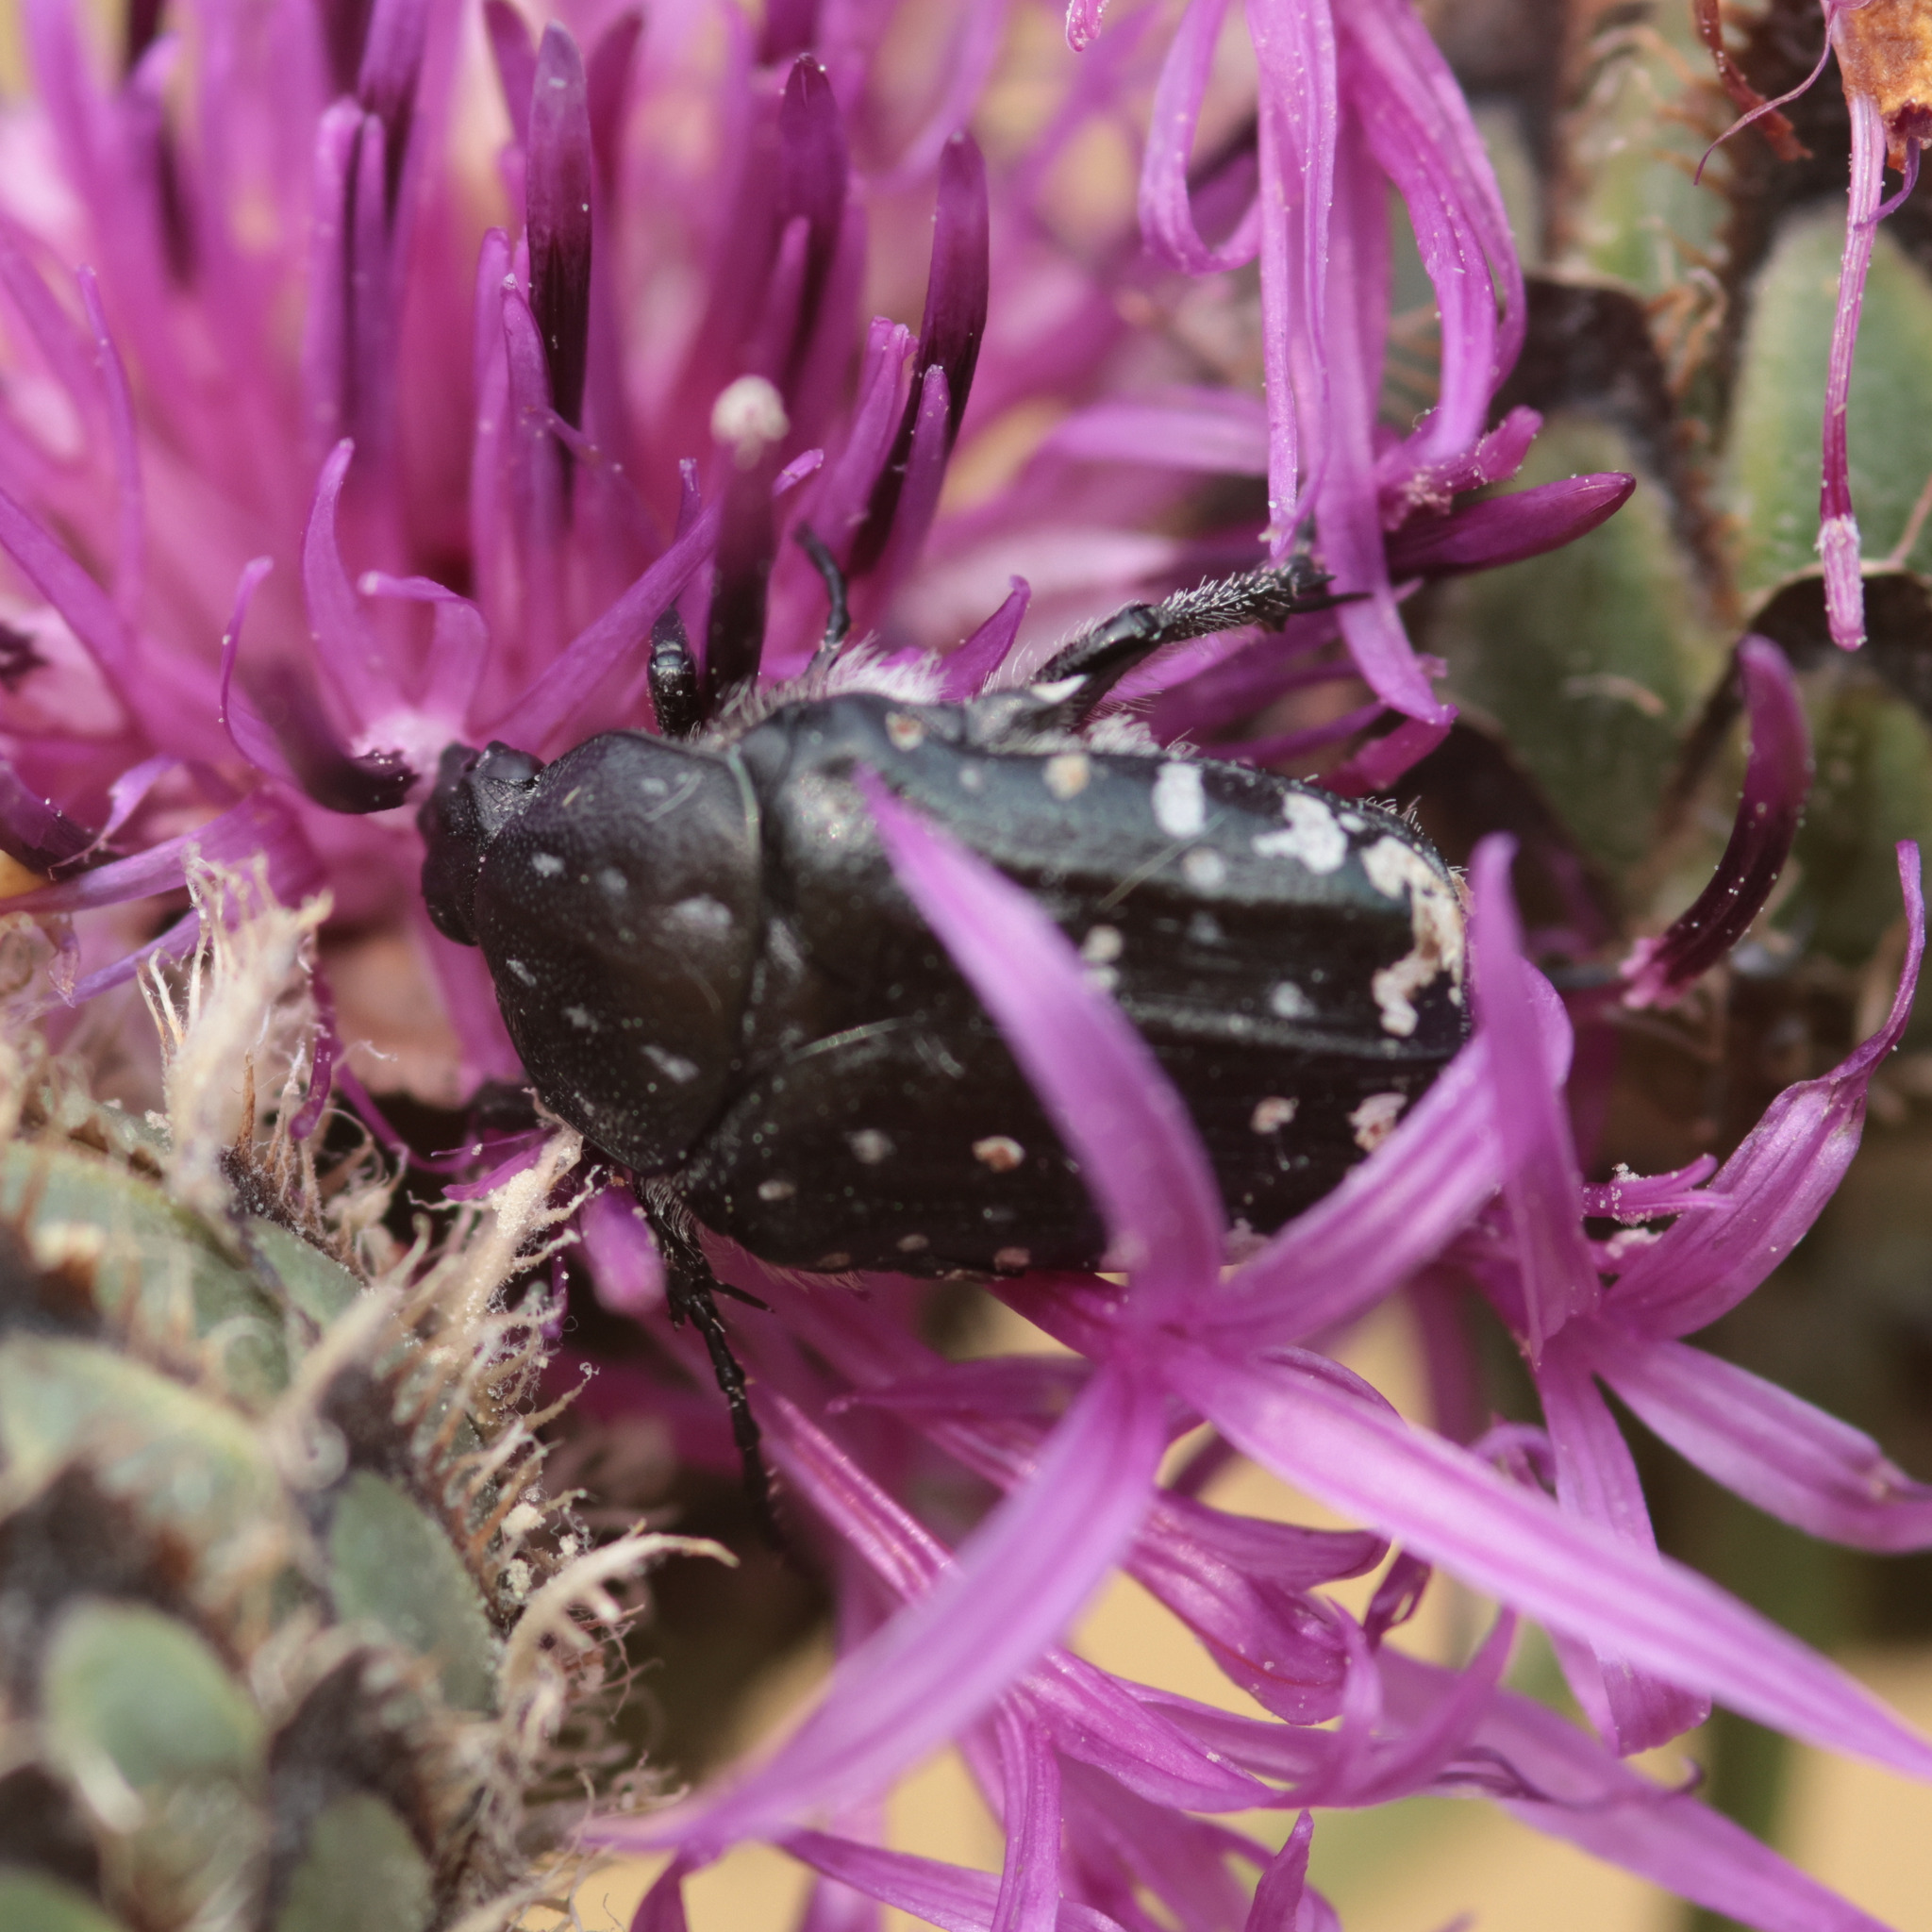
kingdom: Animalia
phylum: Arthropoda
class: Insecta
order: Coleoptera
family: Scarabaeidae
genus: Oxythyrea
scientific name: Oxythyrea funesta
